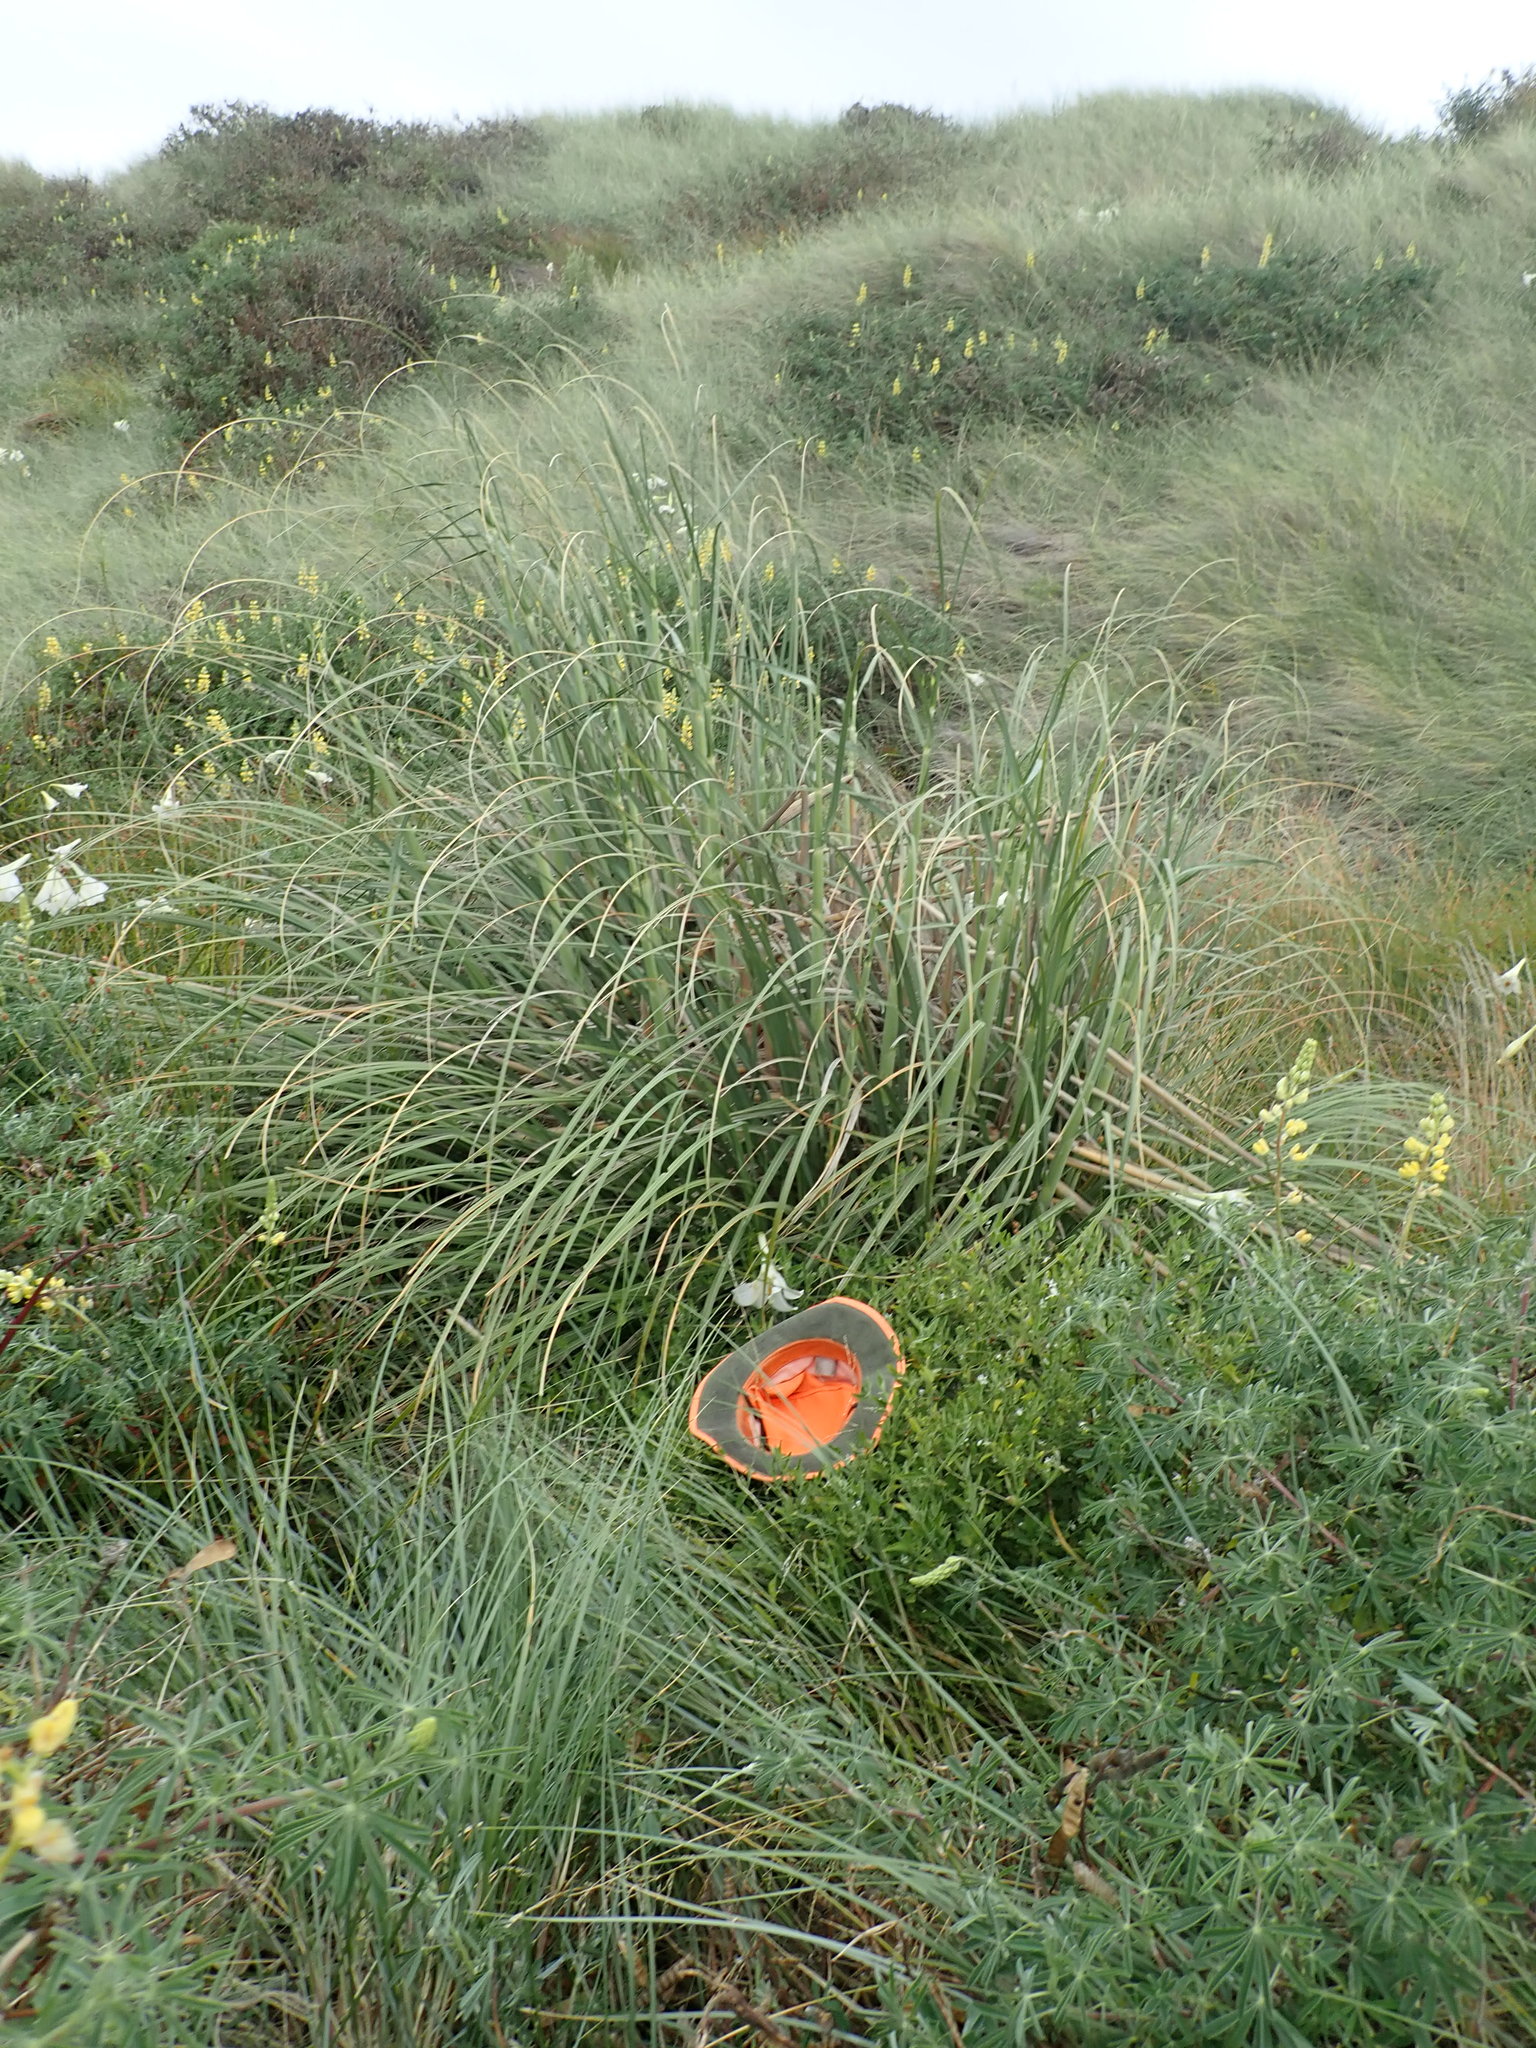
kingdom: Plantae
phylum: Tracheophyta
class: Magnoliopsida
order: Solanales
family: Solanaceae
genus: Solanum
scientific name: Solanum chenopodioides
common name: Tall nightshade
